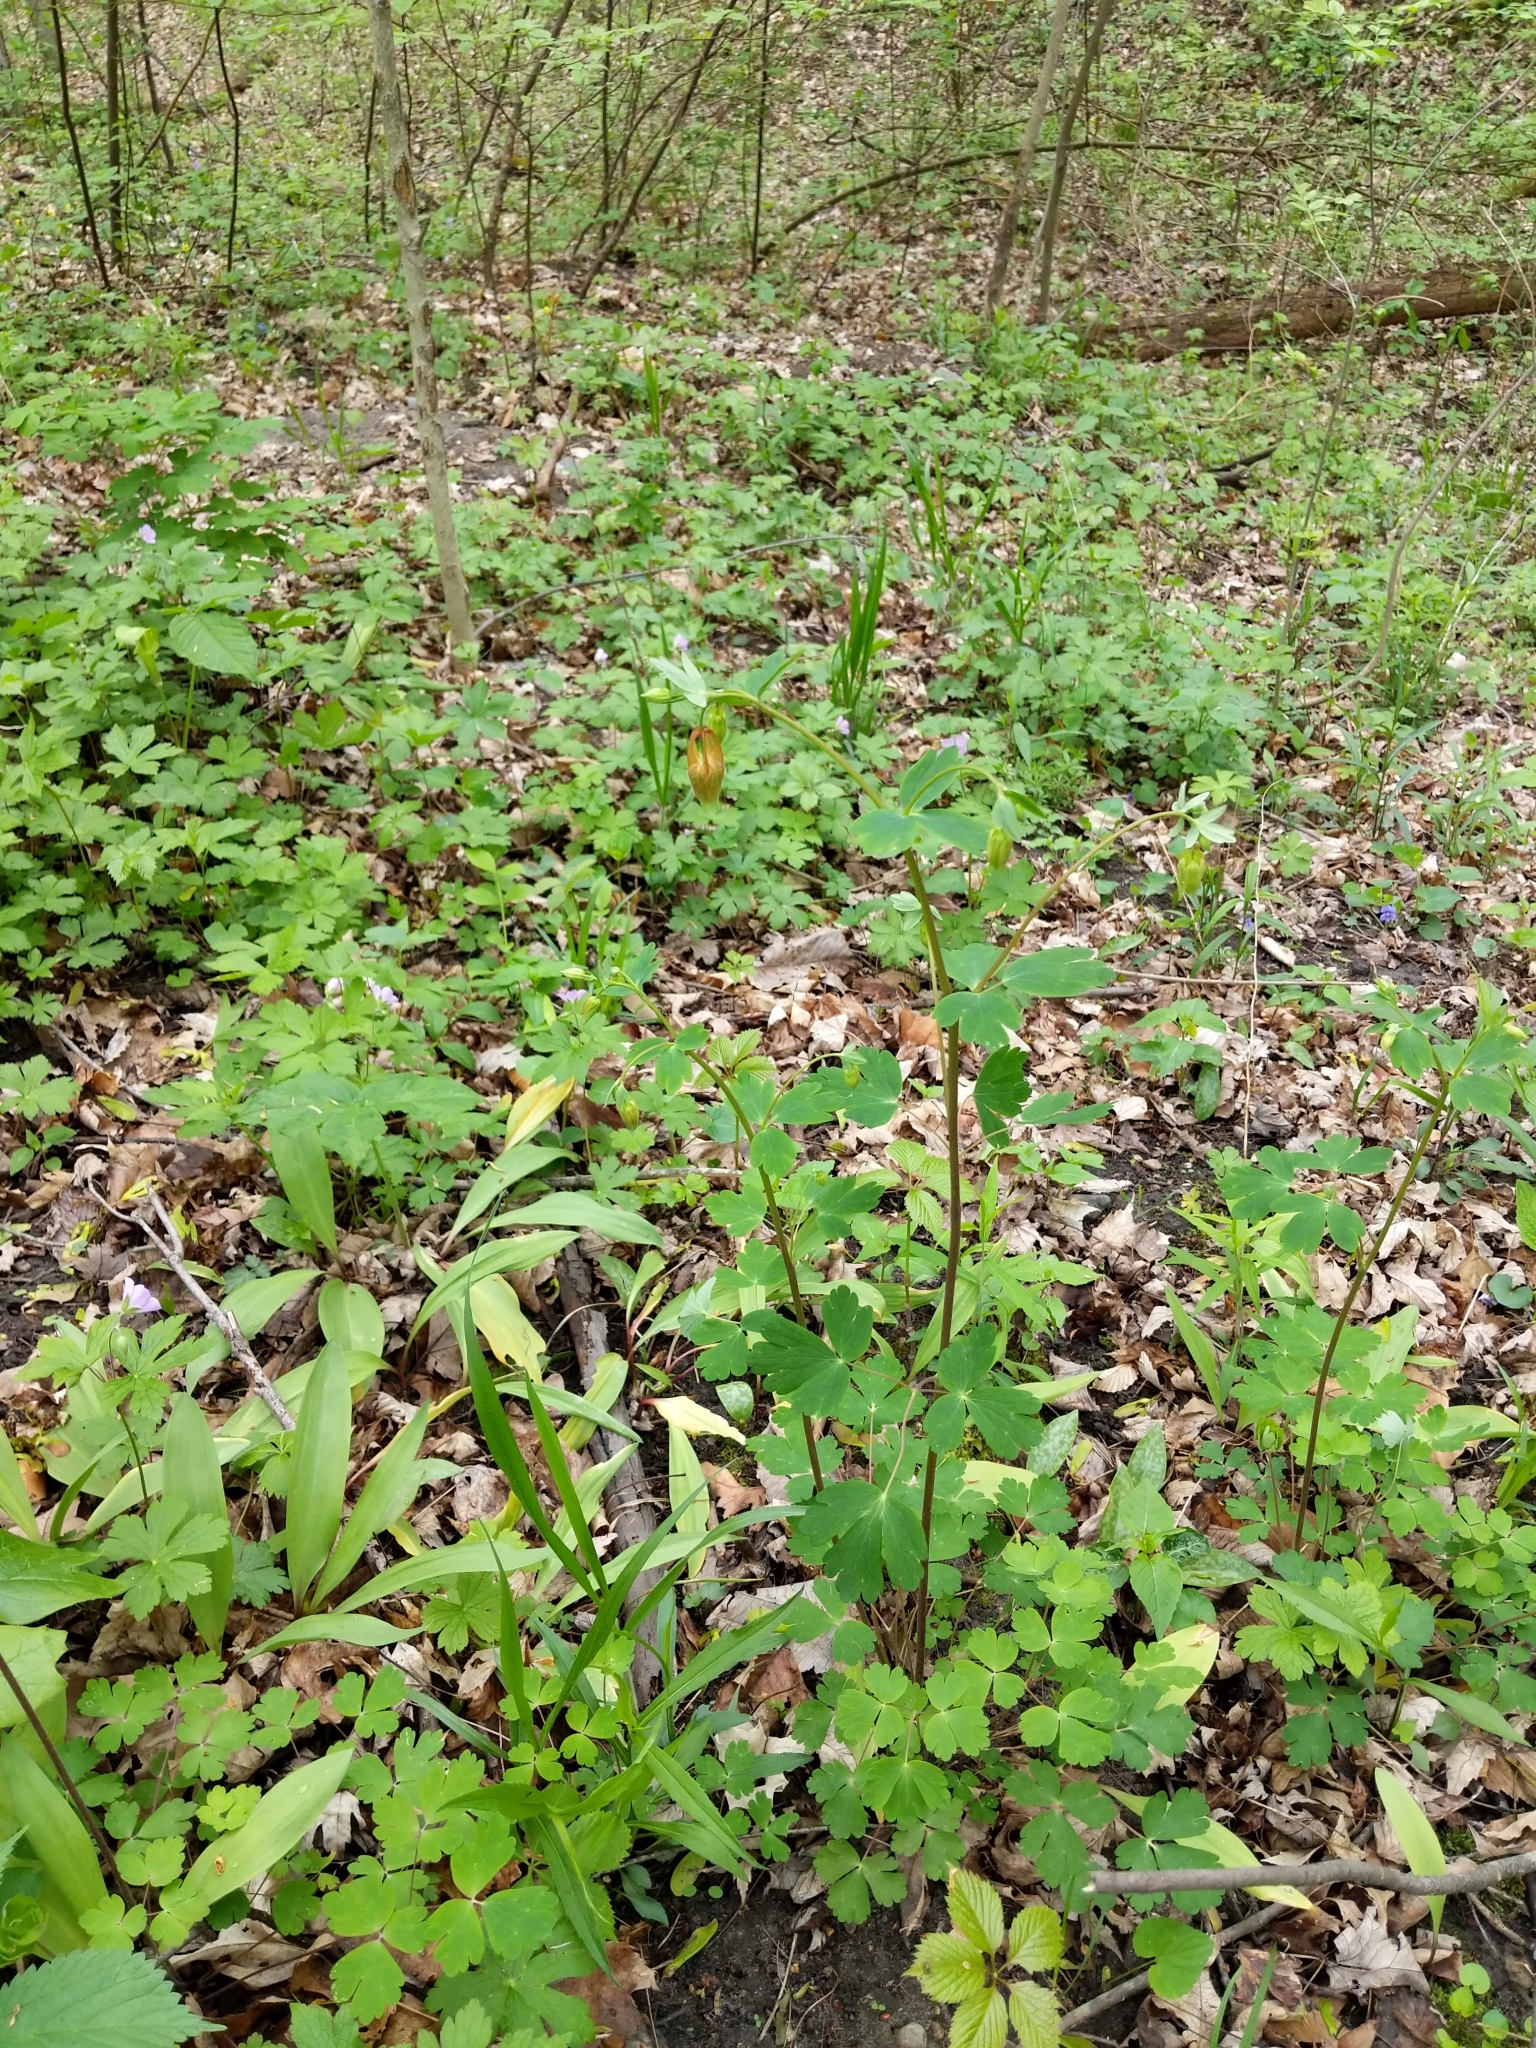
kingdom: Plantae
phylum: Tracheophyta
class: Magnoliopsida
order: Ranunculales
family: Ranunculaceae
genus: Aquilegia
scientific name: Aquilegia canadensis
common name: American columbine
